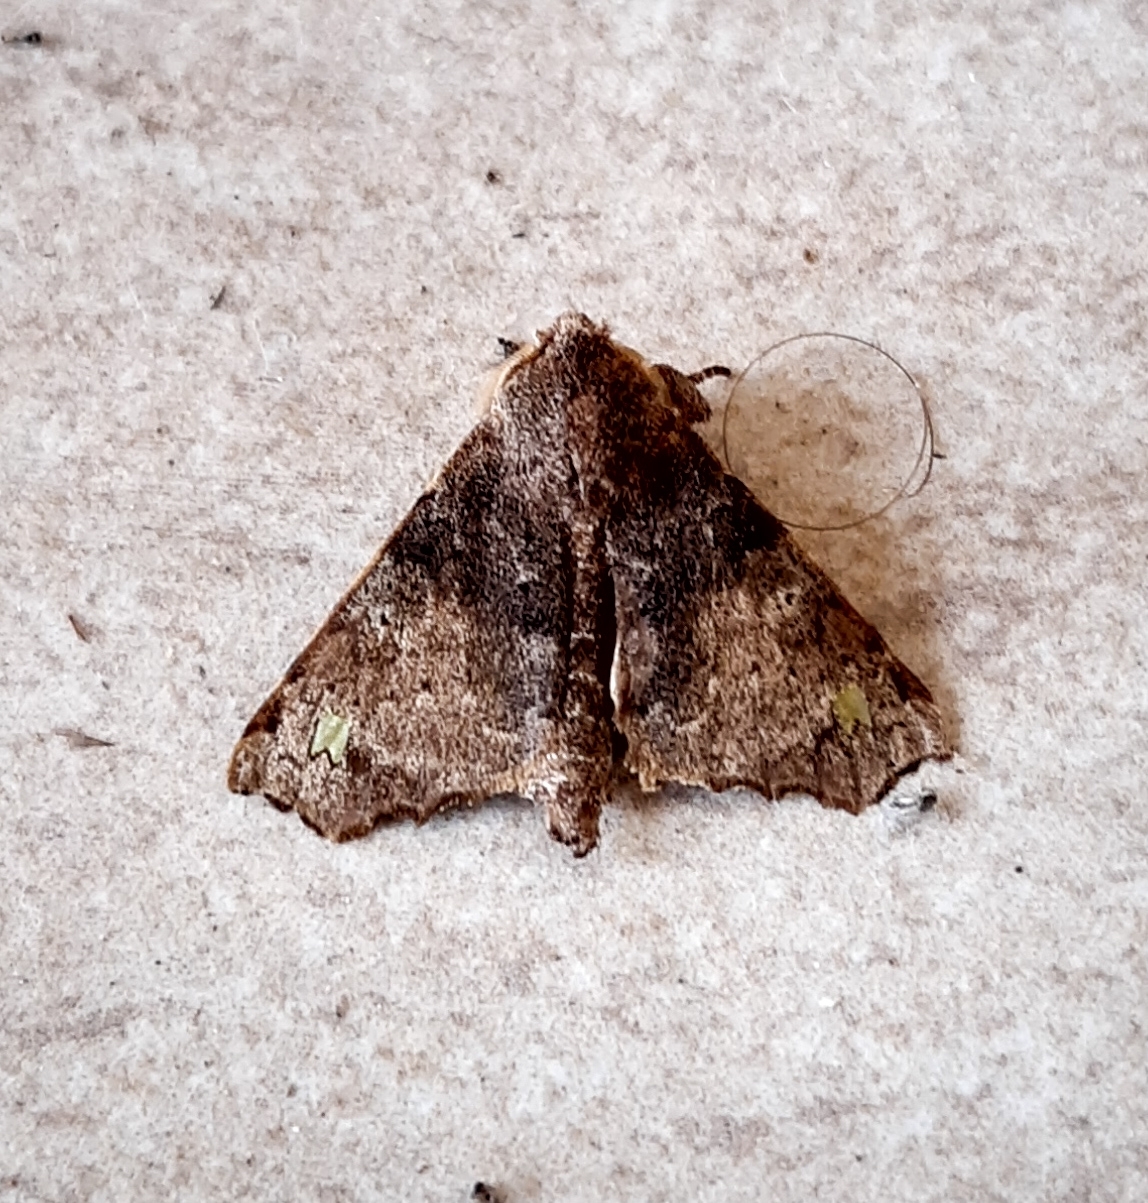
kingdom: Animalia
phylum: Arthropoda
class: Insecta
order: Lepidoptera
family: Apatelodidae
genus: Olceclostera
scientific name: Olceclostera basifusca
